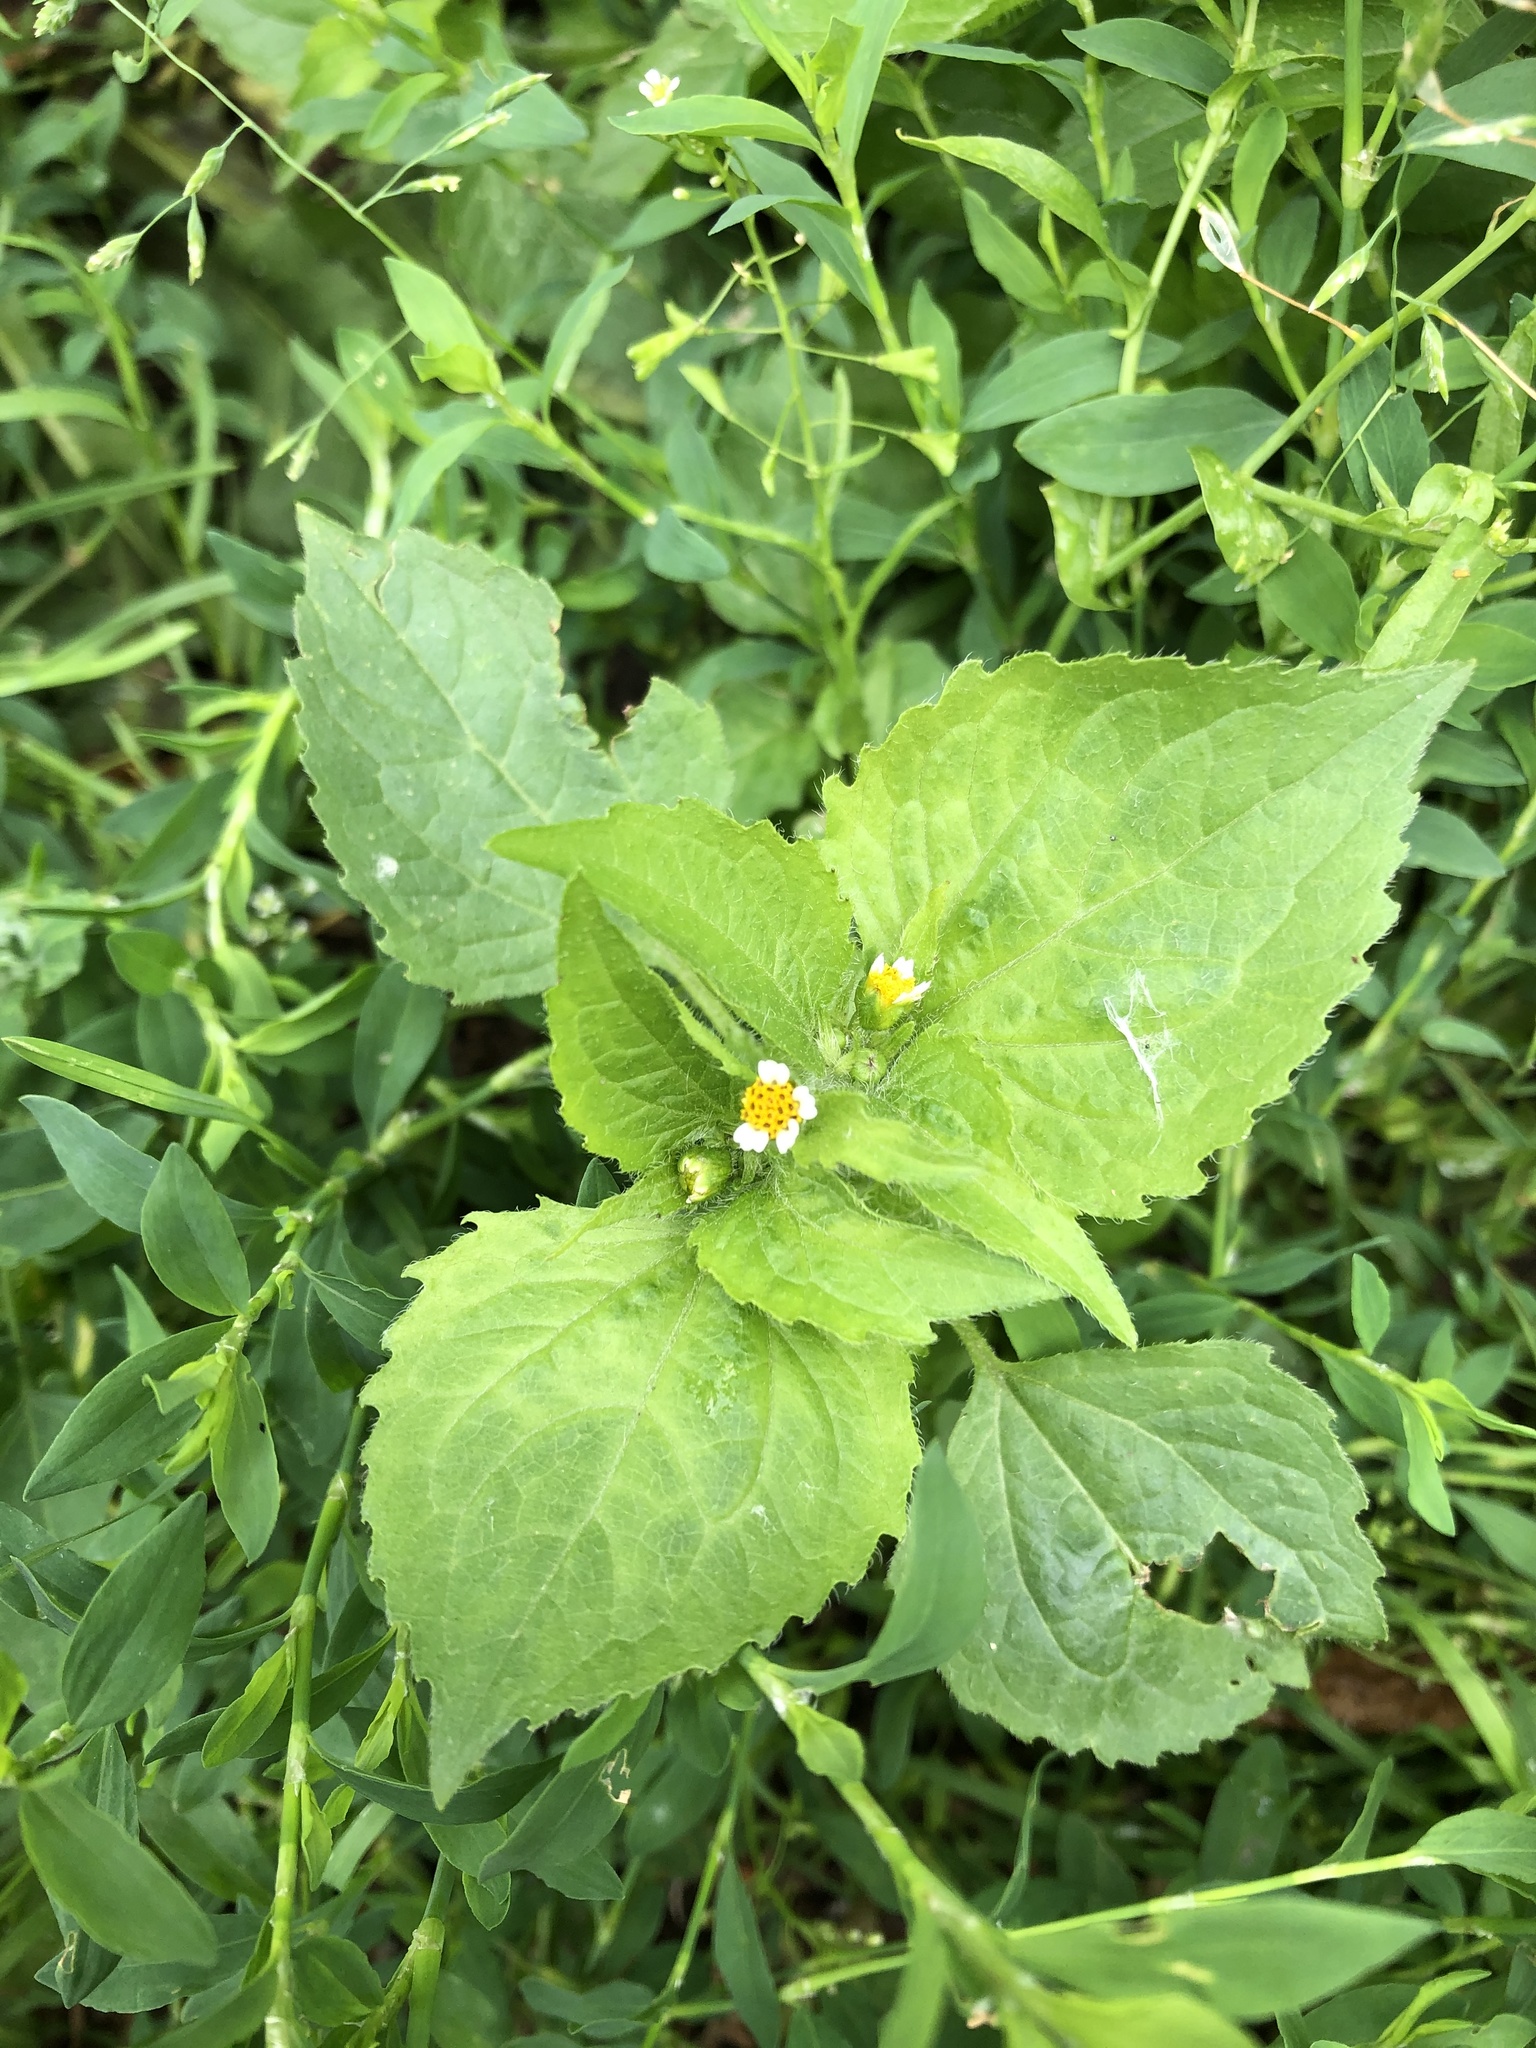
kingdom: Plantae
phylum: Tracheophyta
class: Magnoliopsida
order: Asterales
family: Asteraceae
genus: Galinsoga
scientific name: Galinsoga parviflora
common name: Gallant soldier
